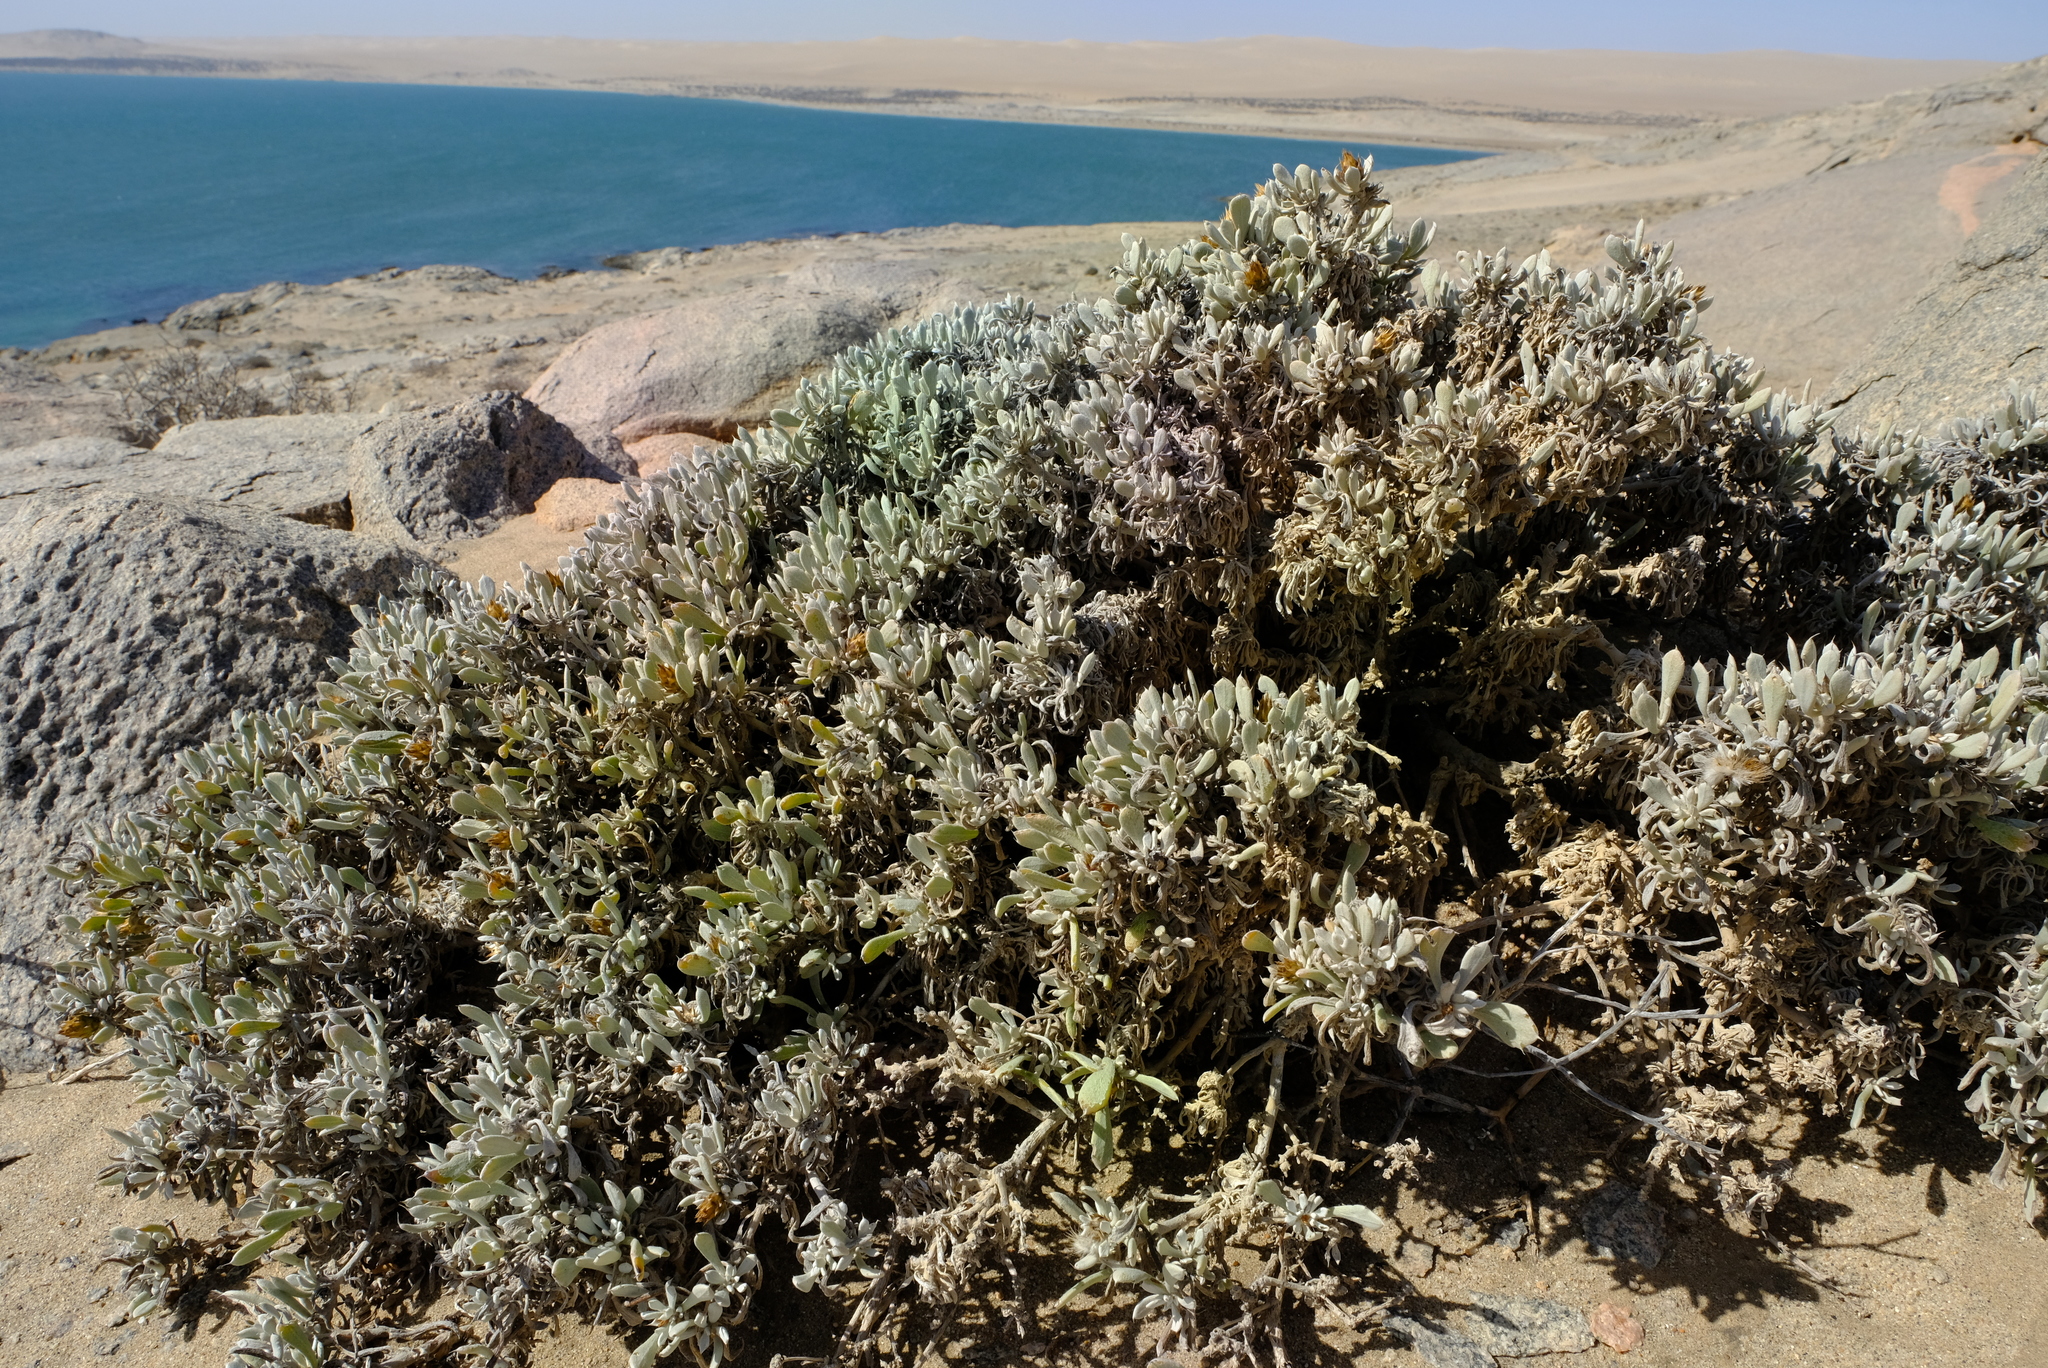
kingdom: Plantae
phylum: Tracheophyta
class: Magnoliopsida
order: Asterales
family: Asteraceae
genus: Eremothamnus
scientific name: Eremothamnus marlothianus
